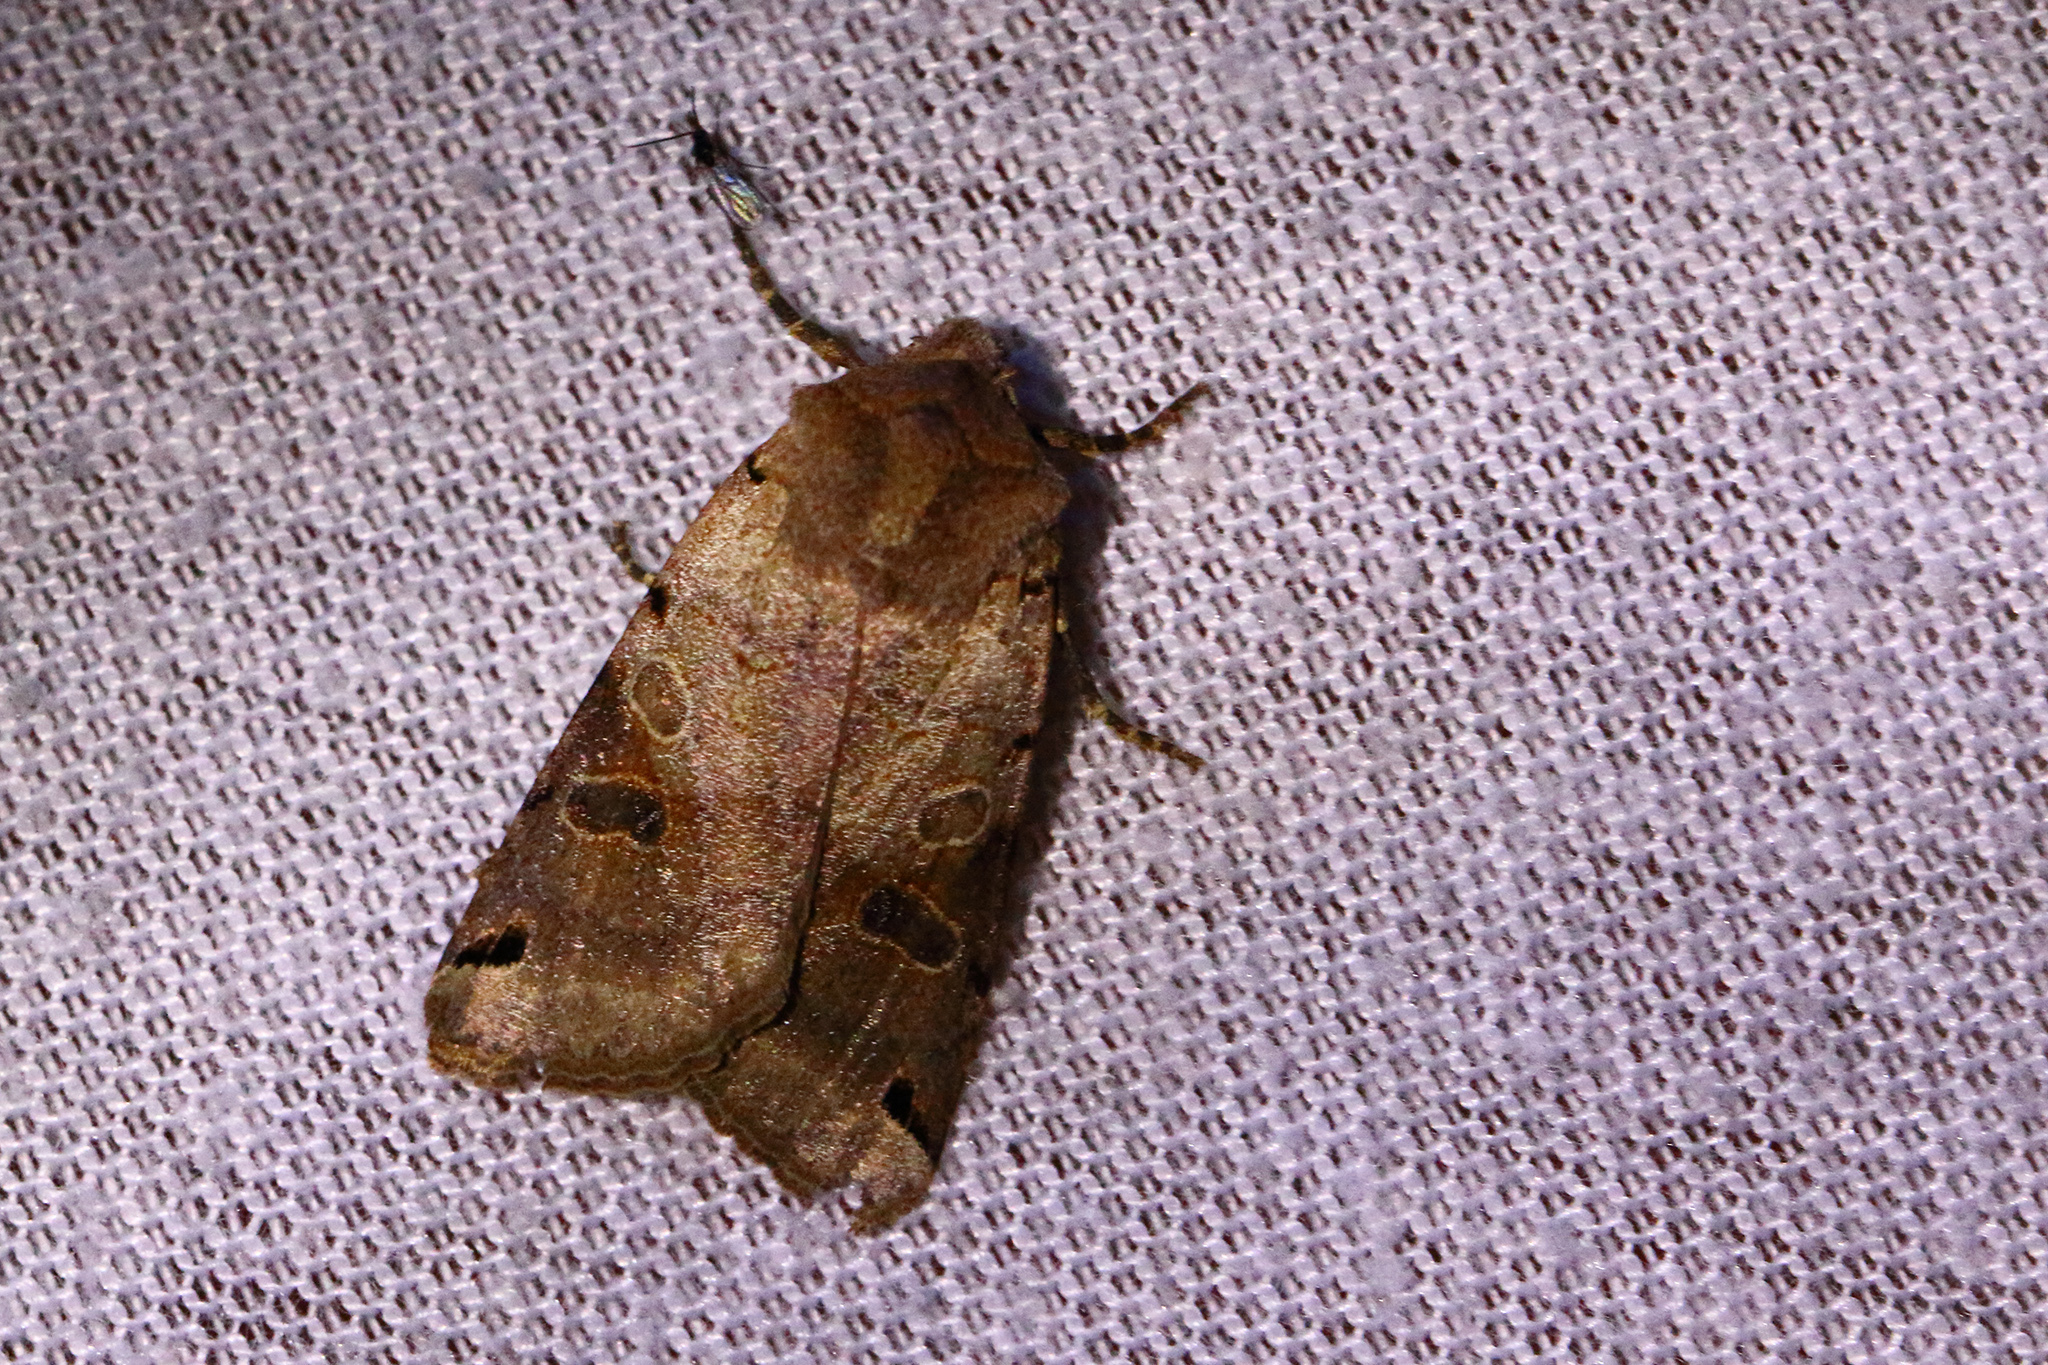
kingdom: Animalia
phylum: Arthropoda
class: Insecta
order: Lepidoptera
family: Noctuidae
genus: Agrochola
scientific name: Agrochola litura
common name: Brown-spot pinion
